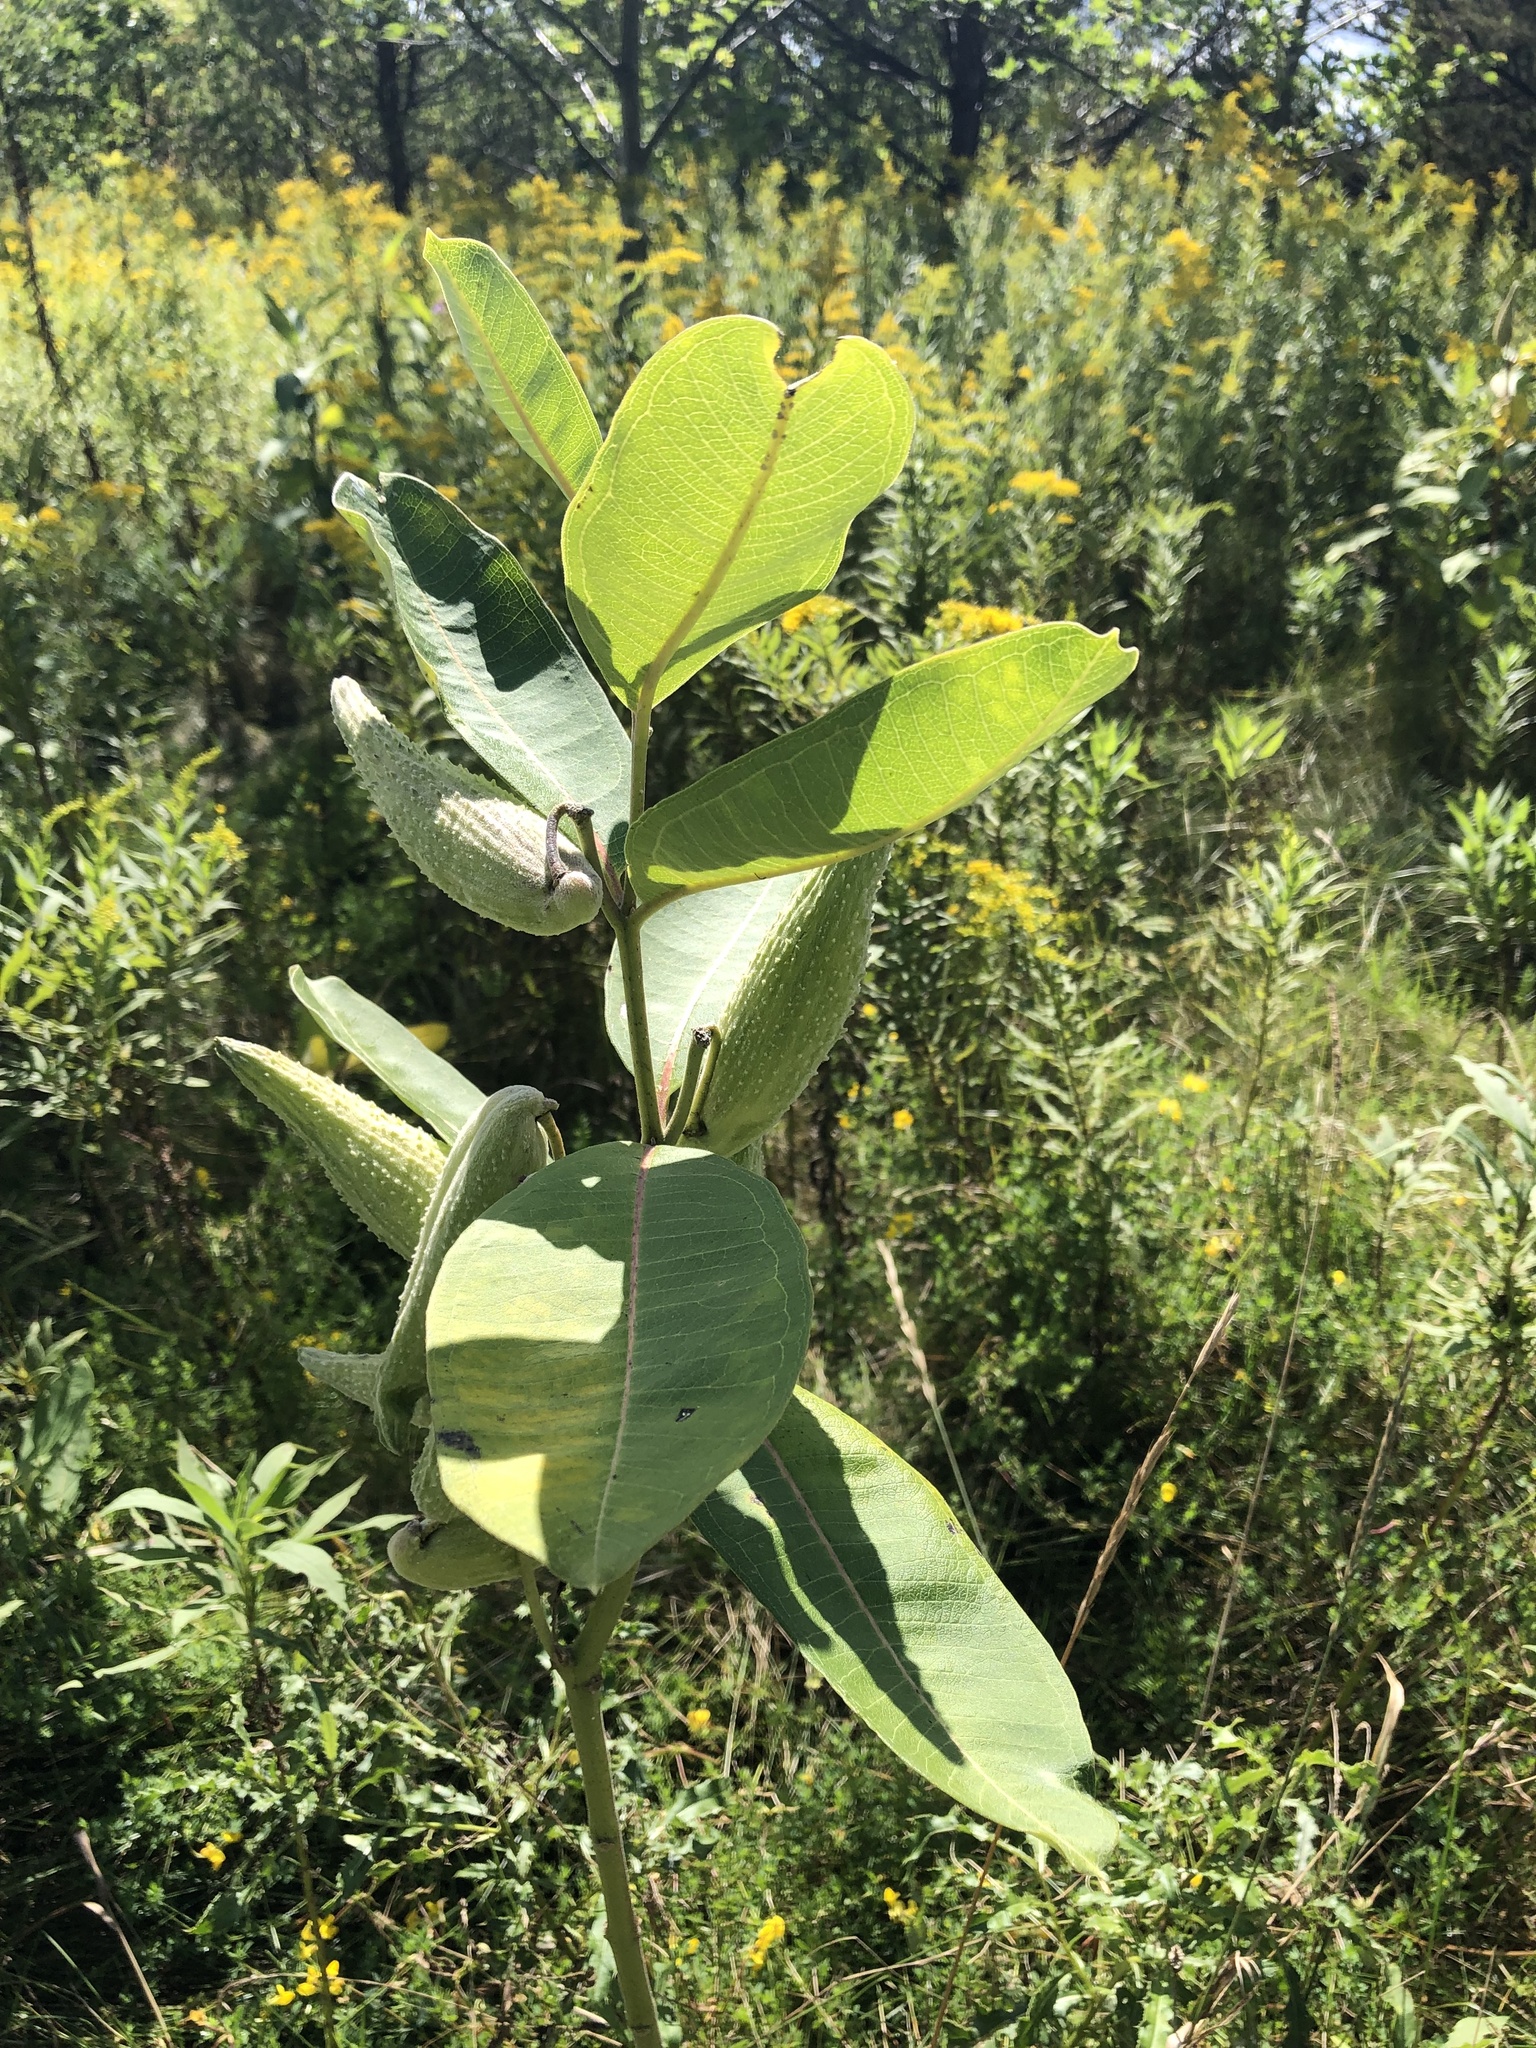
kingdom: Plantae
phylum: Tracheophyta
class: Magnoliopsida
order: Gentianales
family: Apocynaceae
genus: Asclepias
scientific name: Asclepias syriaca
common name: Common milkweed
